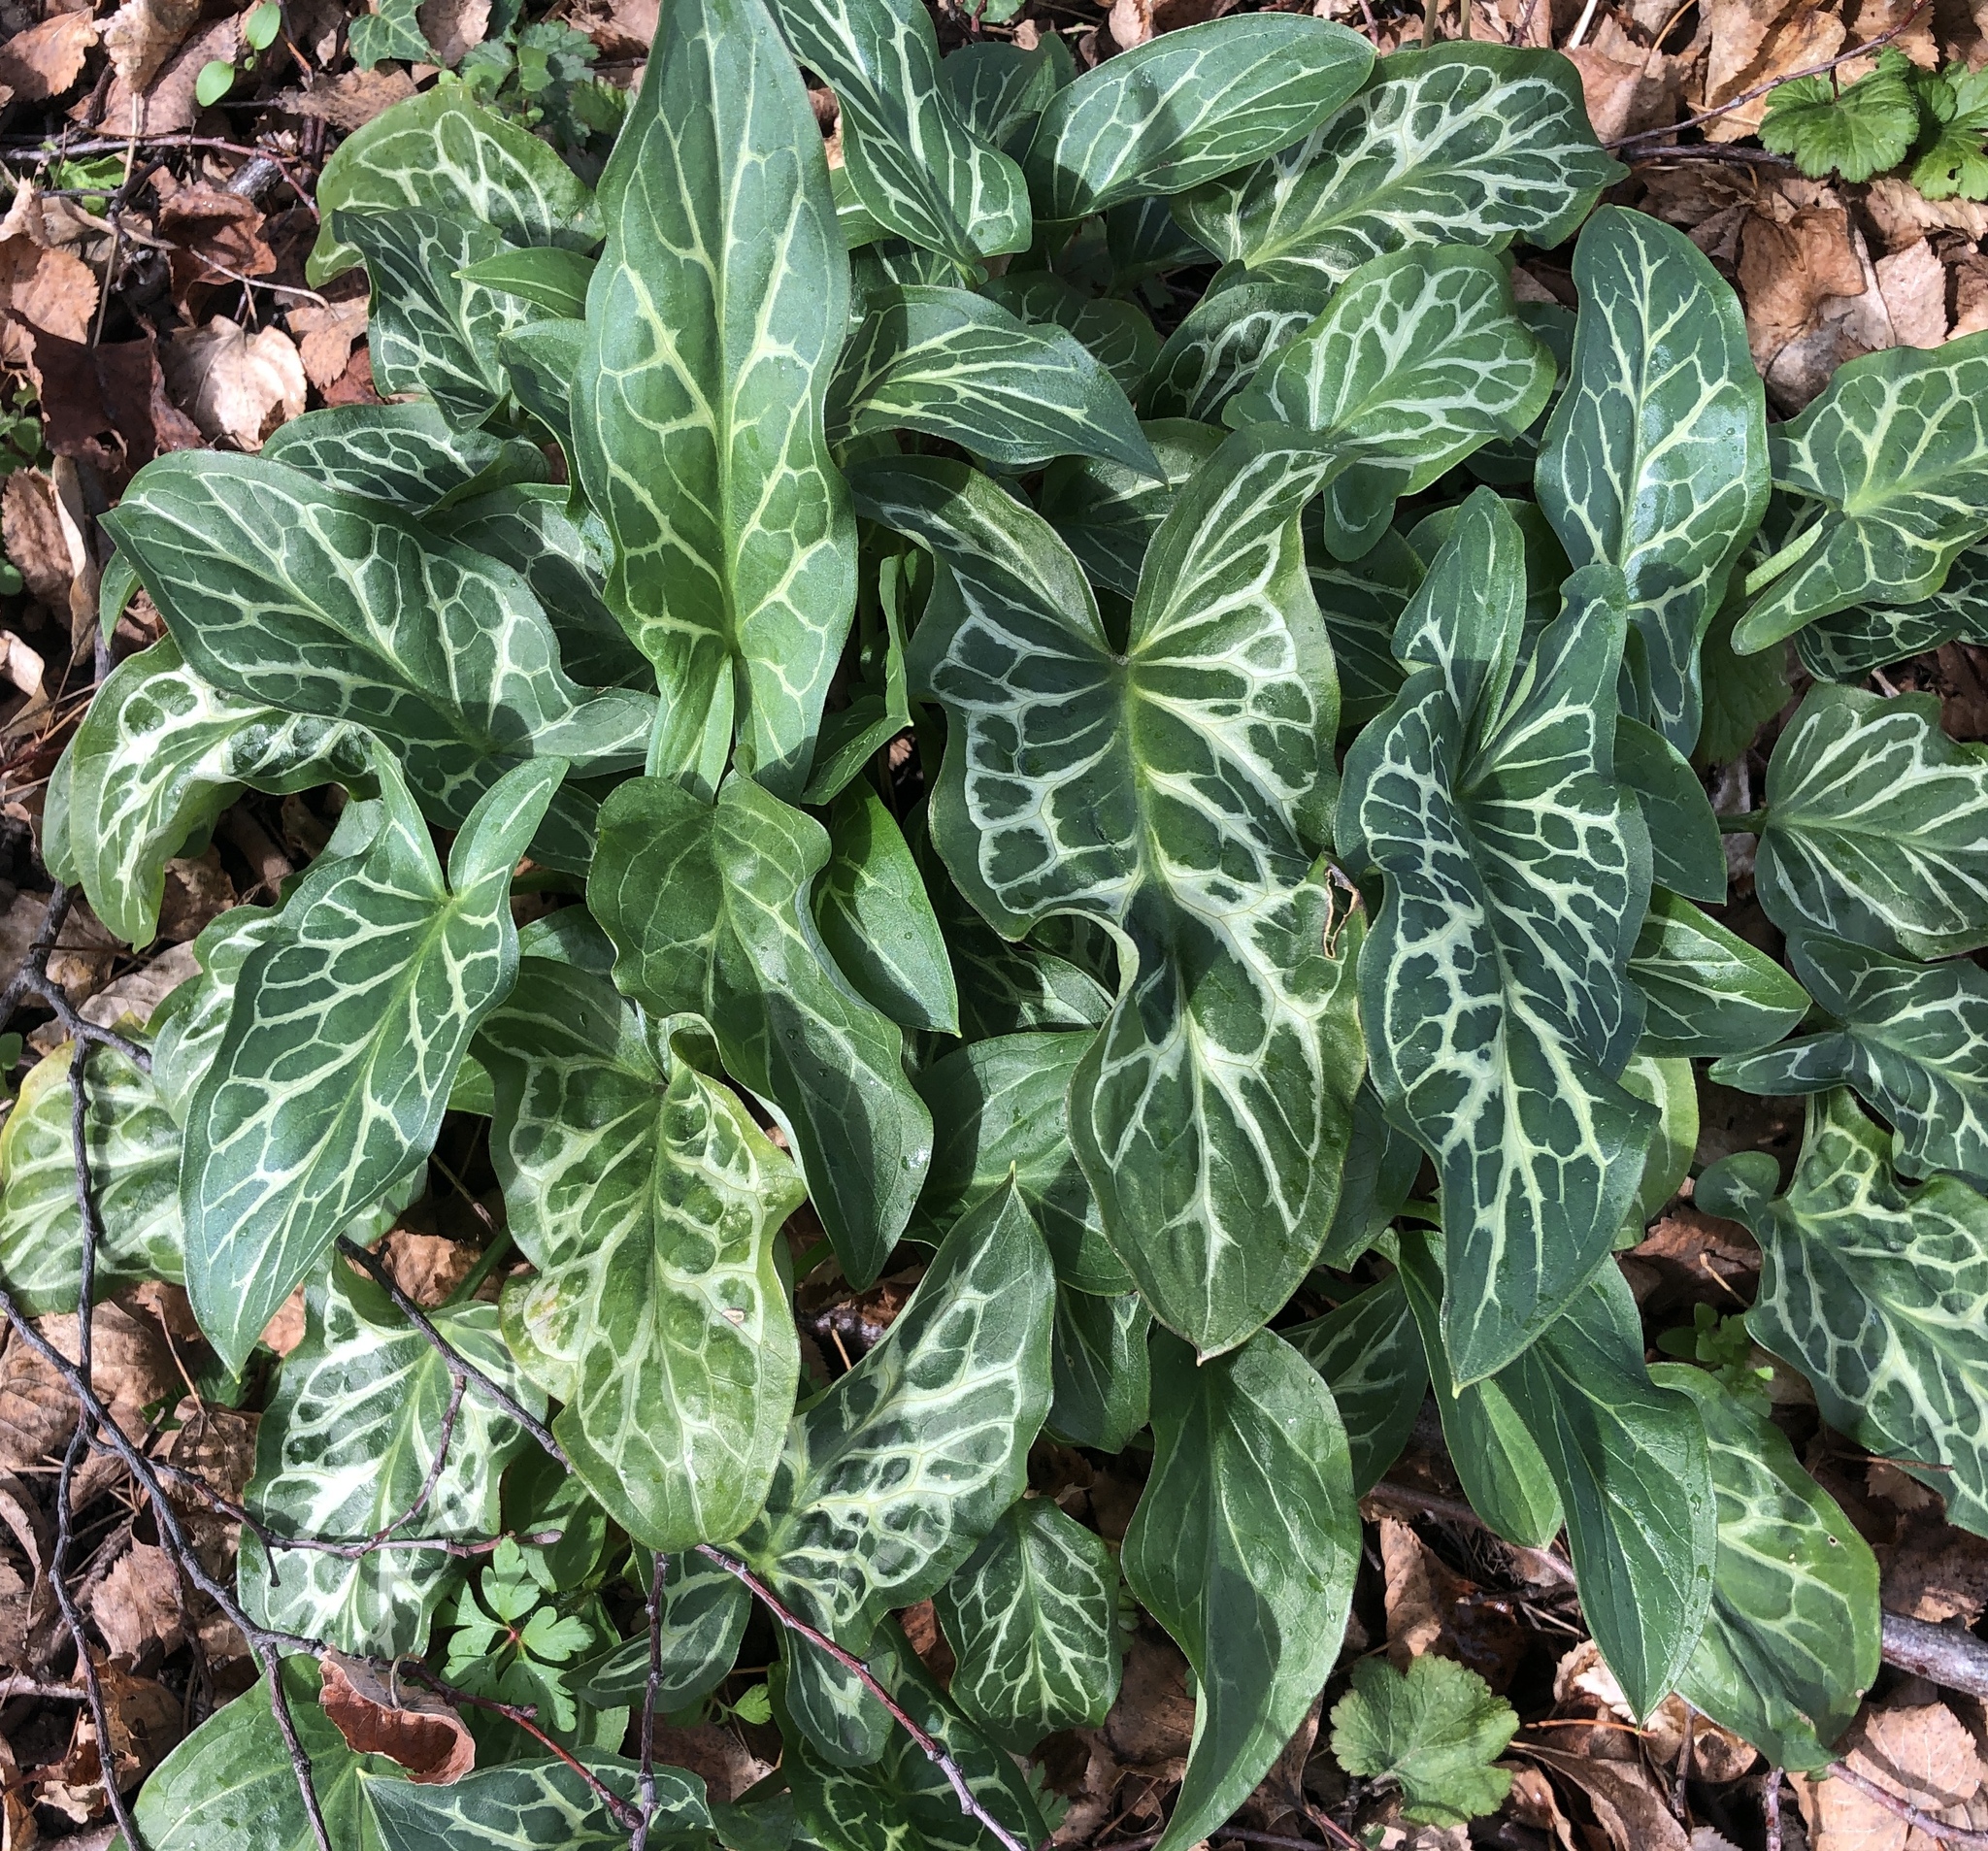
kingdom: Plantae
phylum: Tracheophyta
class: Liliopsida
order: Alismatales
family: Araceae
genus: Arum
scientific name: Arum italicum
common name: Italian lords-and-ladies
